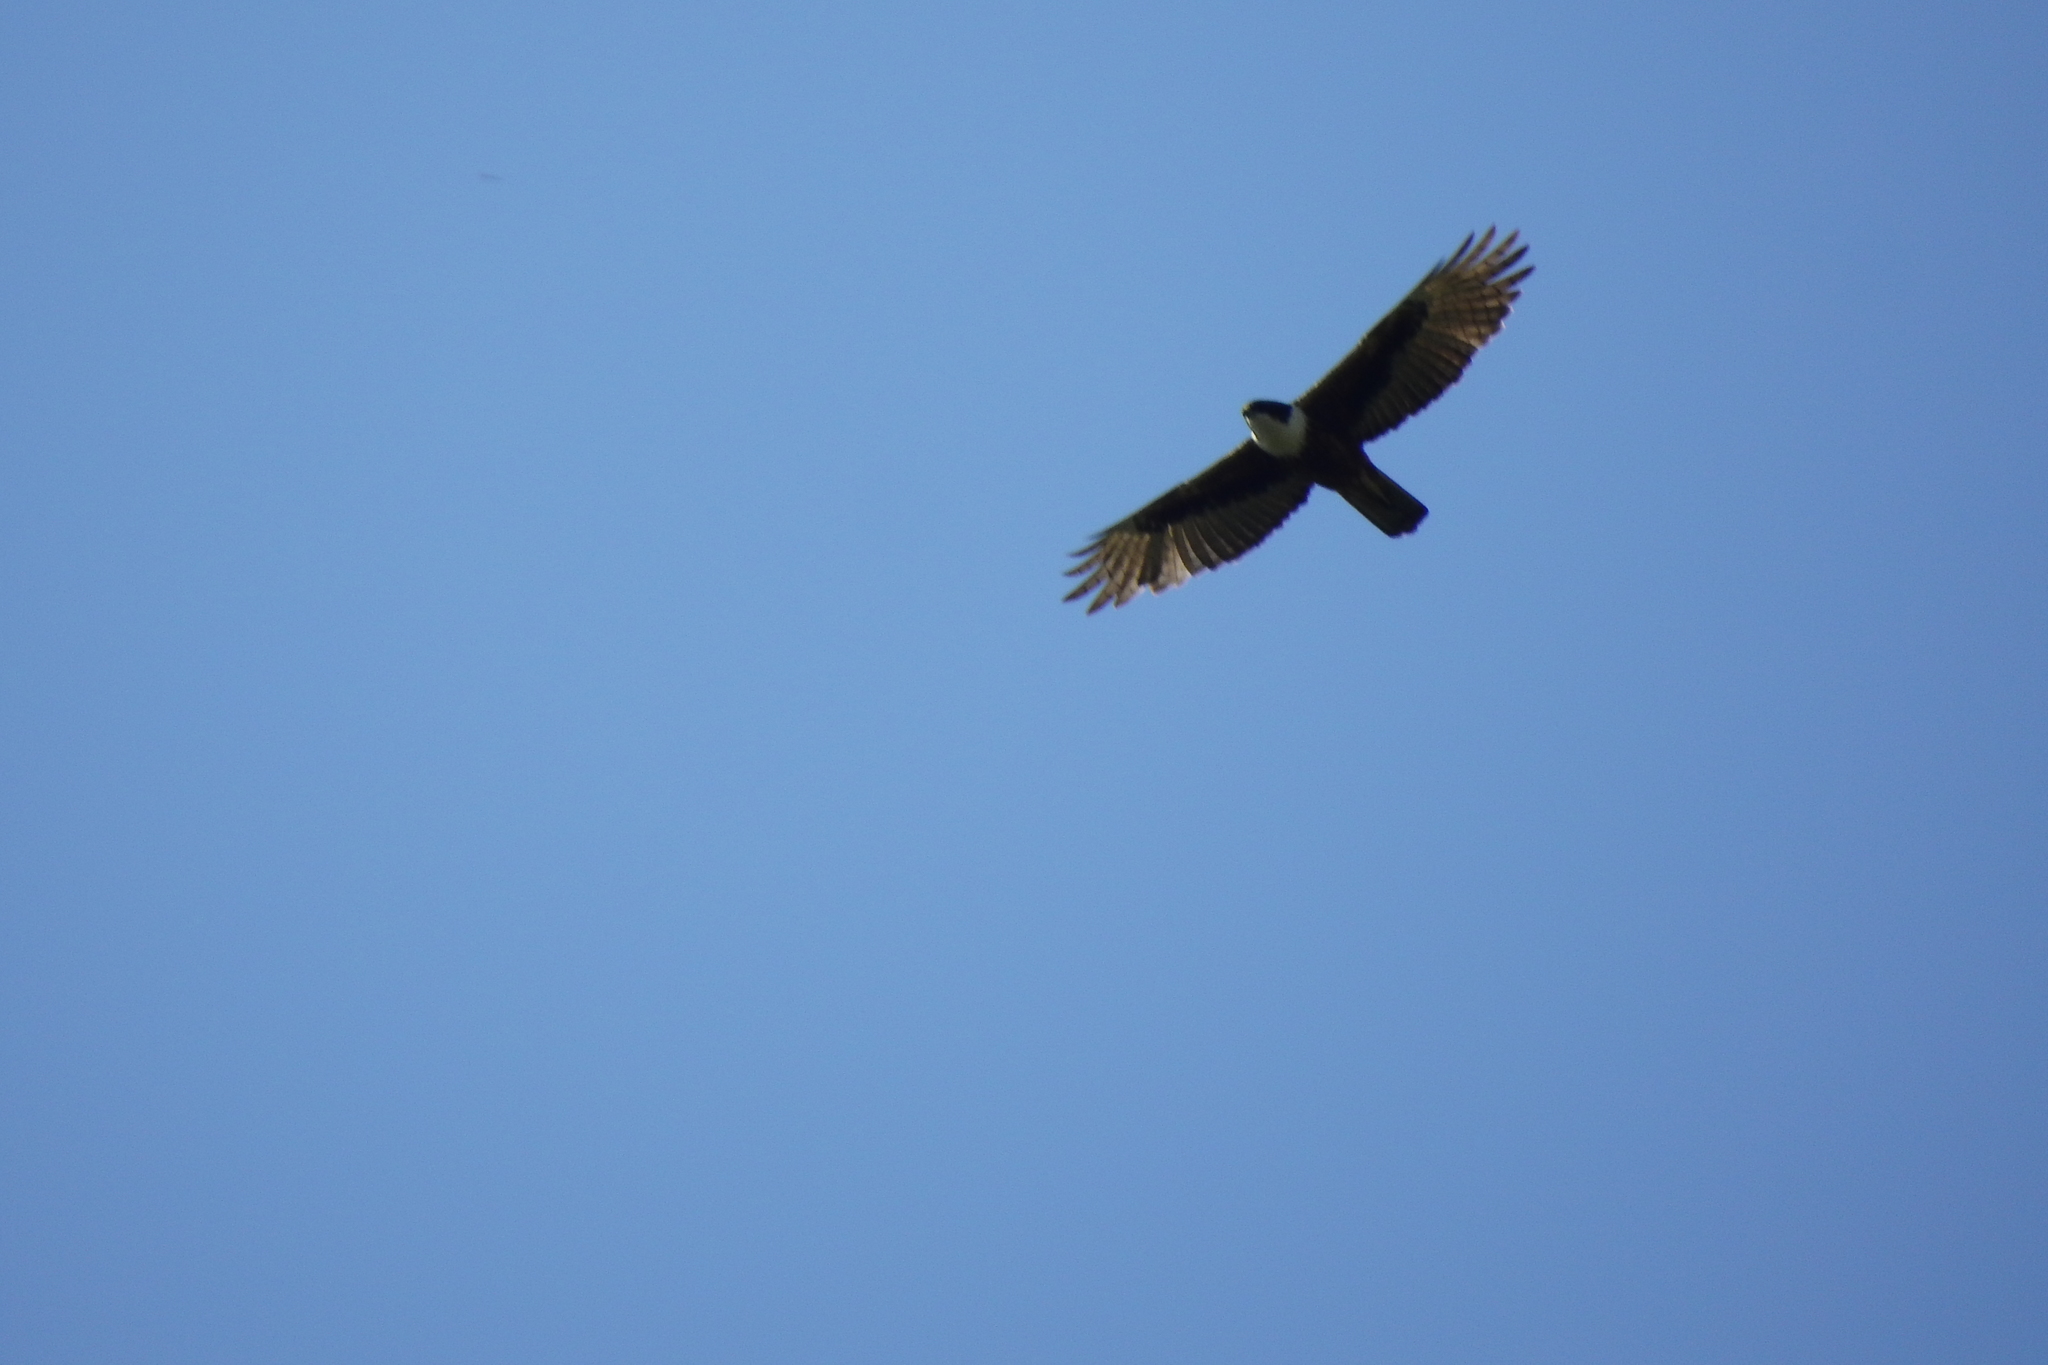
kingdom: Animalia
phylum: Chordata
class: Aves
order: Accipitriformes
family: Accipitridae
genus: Lophotriorchis
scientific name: Lophotriorchis kienerii
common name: Rufous-bellied eagle
